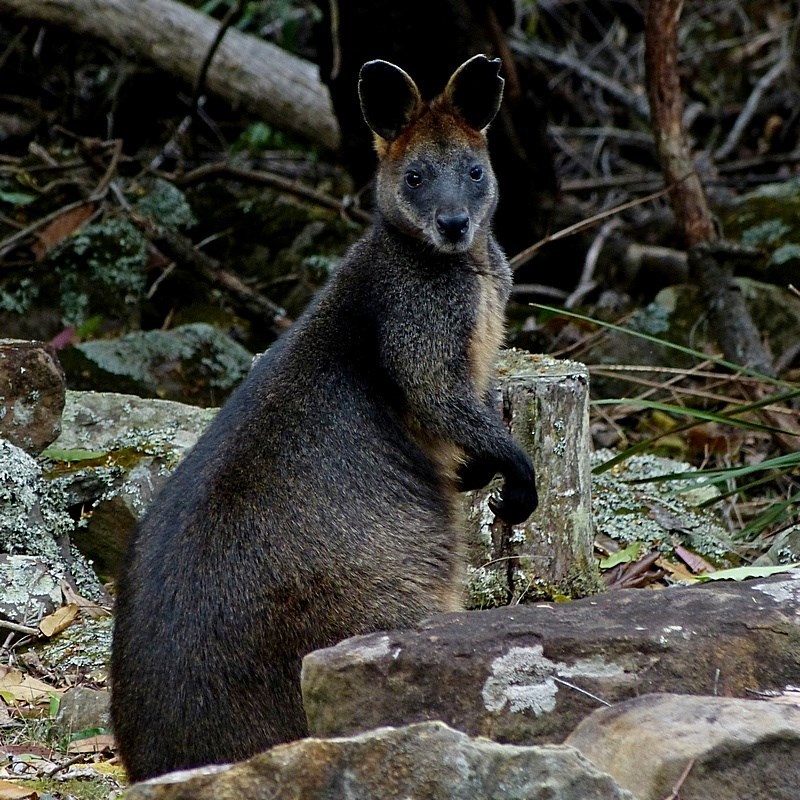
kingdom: Animalia
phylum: Chordata
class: Mammalia
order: Diprotodontia
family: Macropodidae
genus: Wallabia
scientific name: Wallabia bicolor
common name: Swamp wallaby
